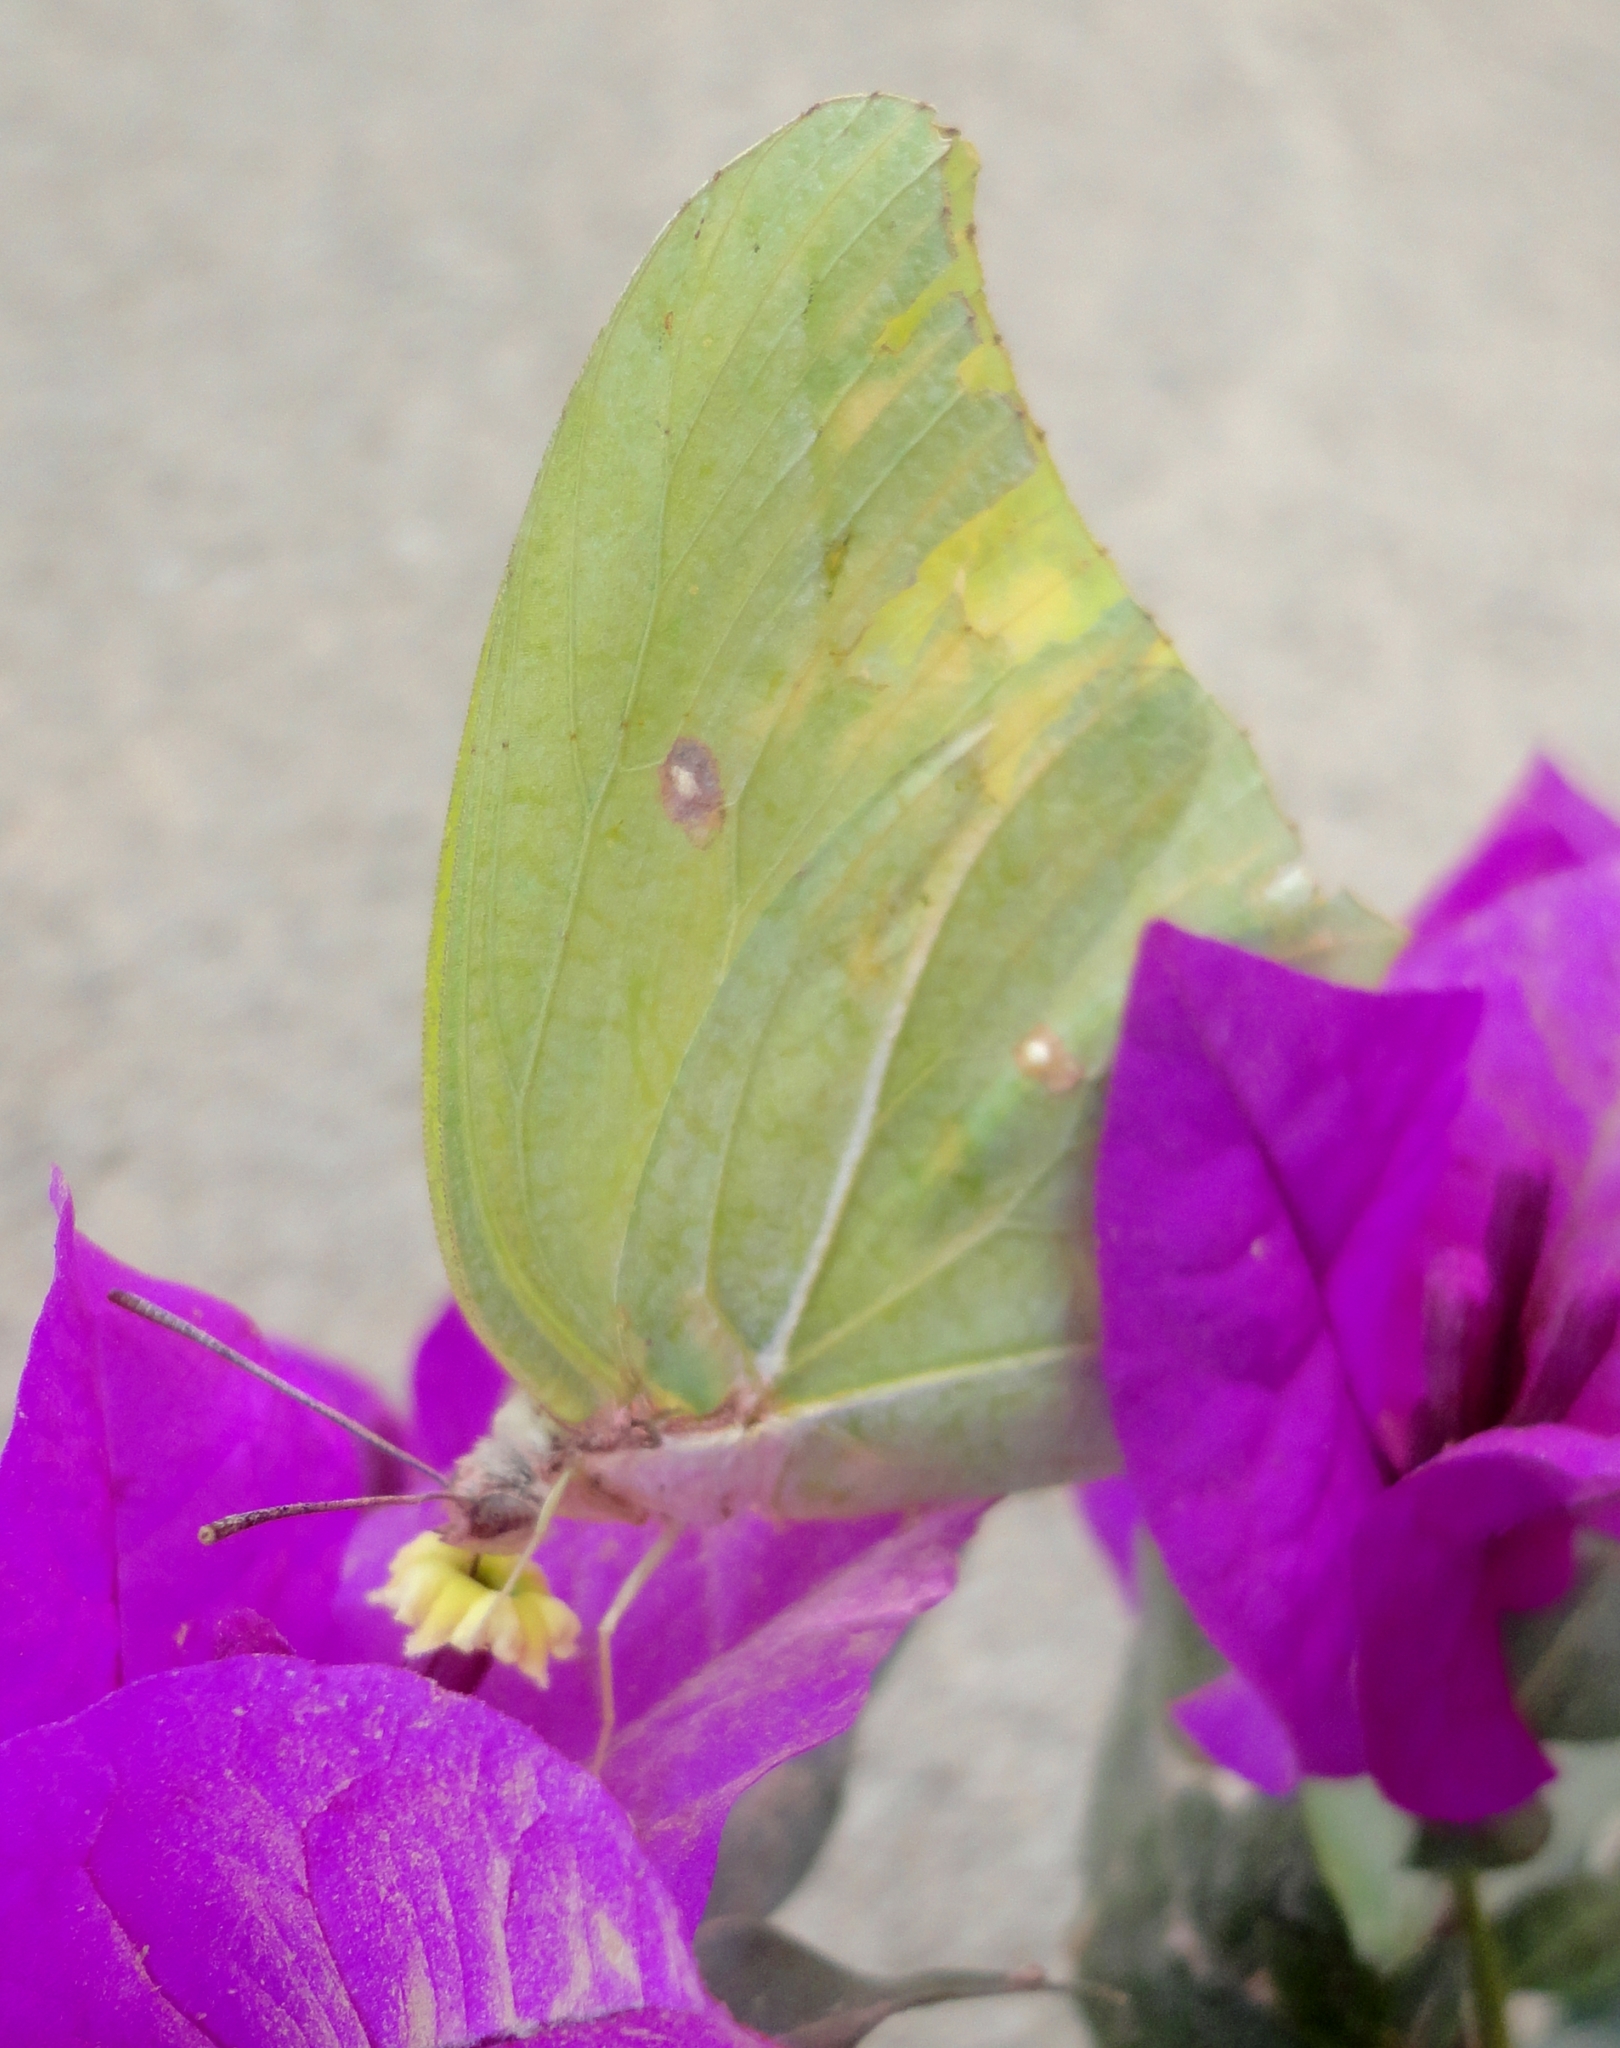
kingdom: Animalia
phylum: Arthropoda
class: Insecta
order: Lepidoptera
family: Pieridae
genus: Anteos
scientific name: Anteos maerula
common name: Angled sulphur
